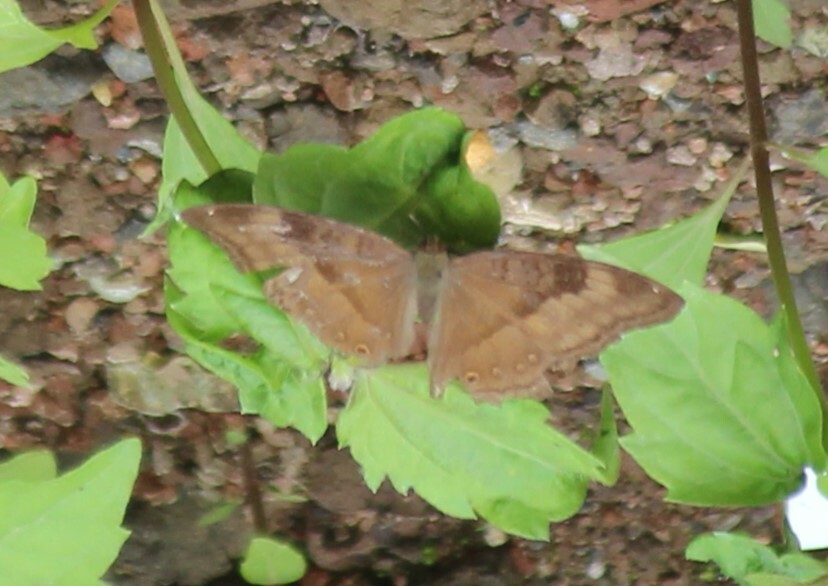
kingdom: Animalia
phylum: Arthropoda
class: Insecta
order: Lepidoptera
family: Nymphalidae
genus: Junonia
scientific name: Junonia iphita
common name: Chocolate pansy
